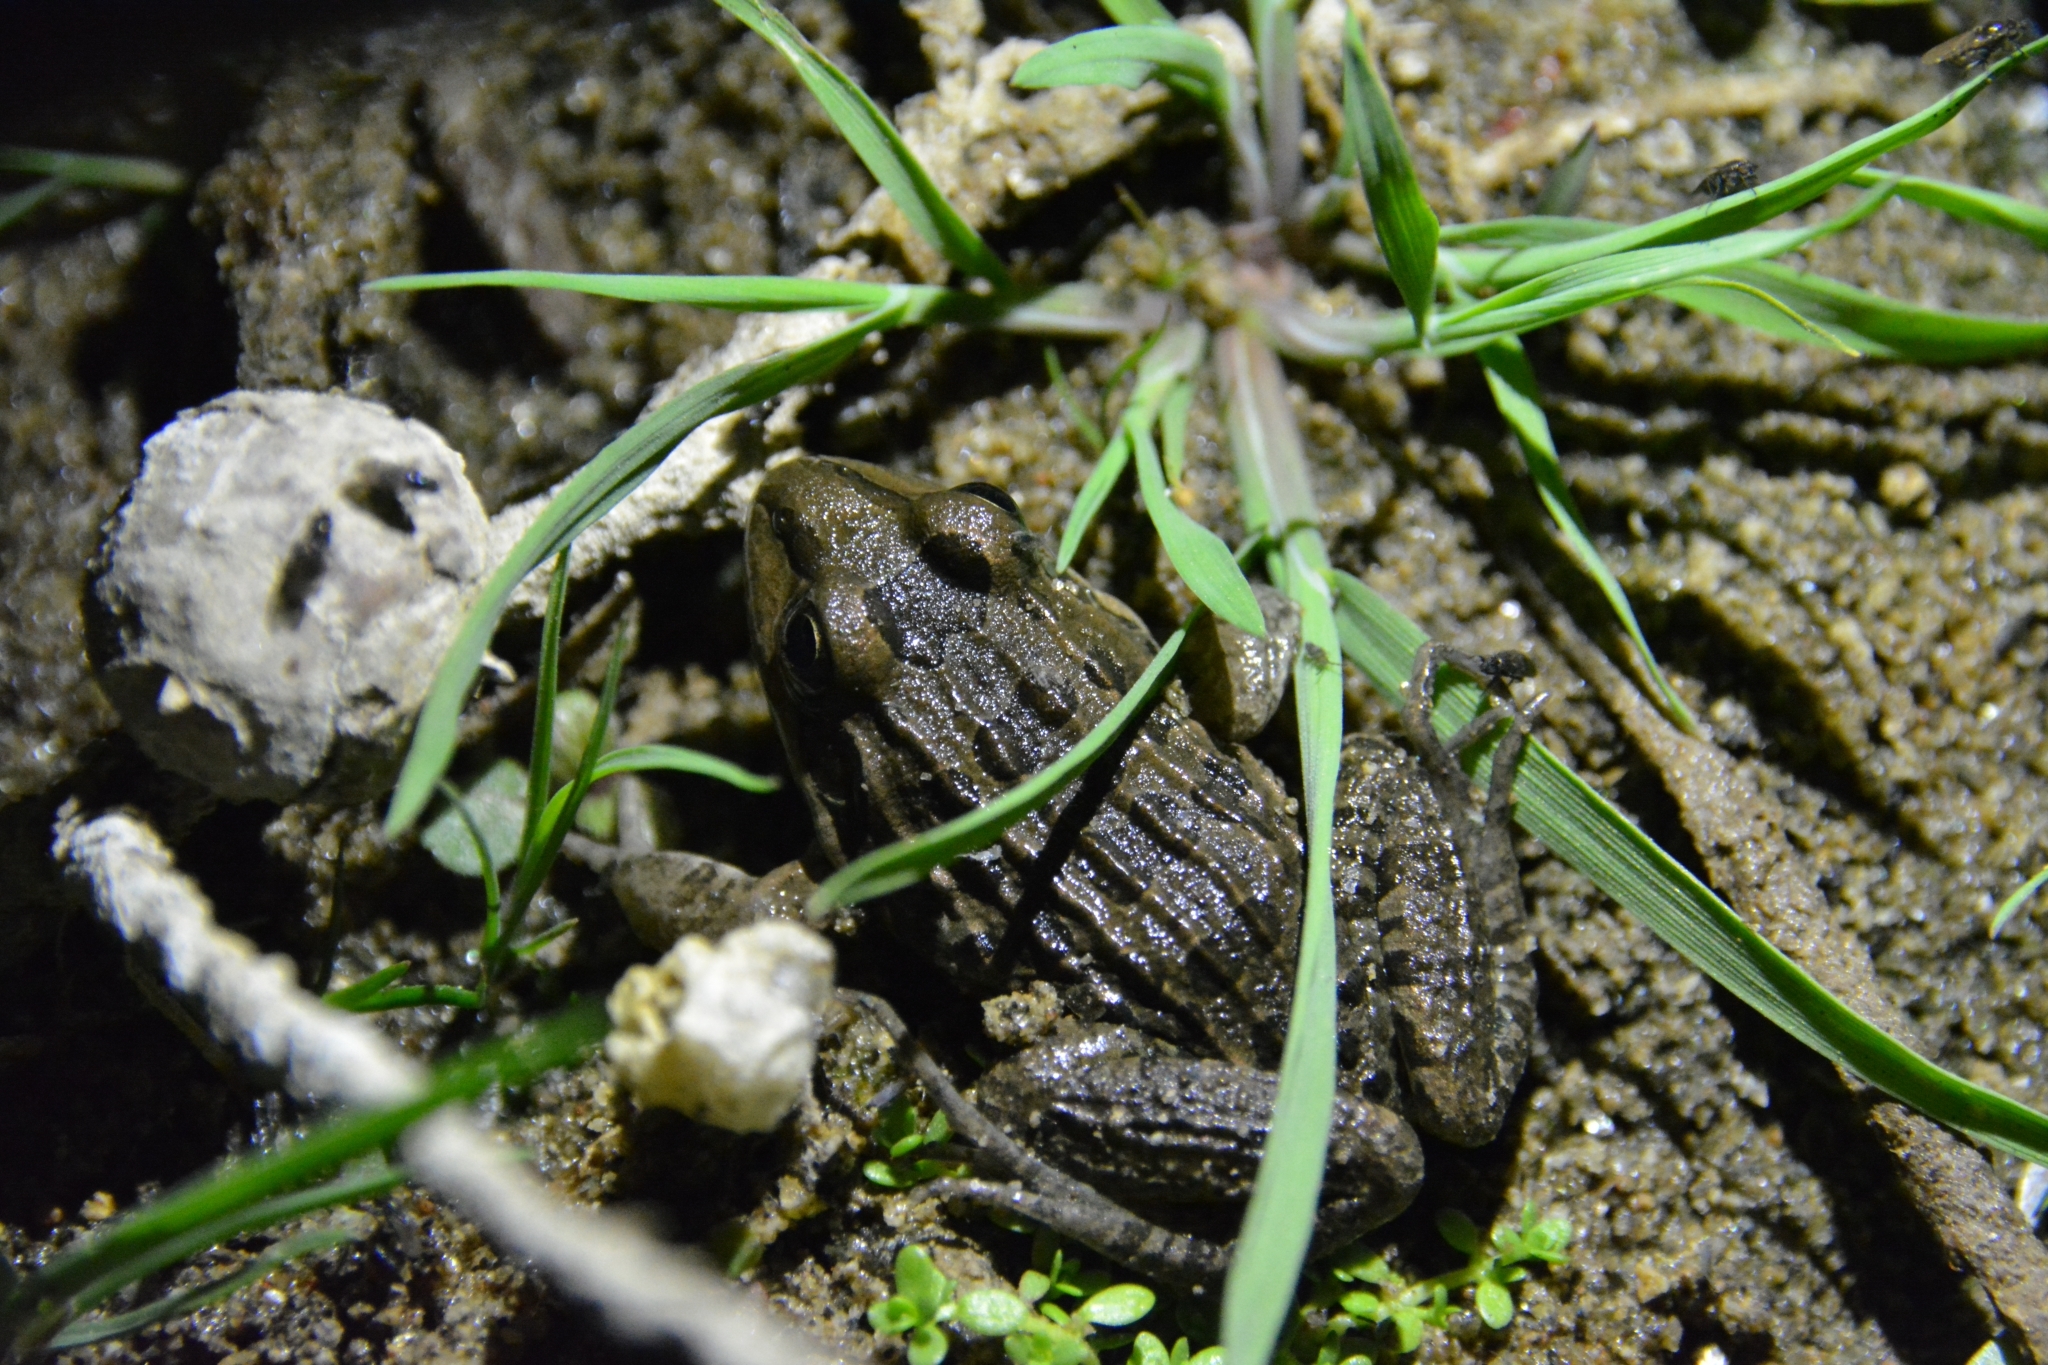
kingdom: Animalia
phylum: Chordata
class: Amphibia
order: Anura
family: Leptodactylidae
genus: Leptodactylus
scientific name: Leptodactylus luctator
